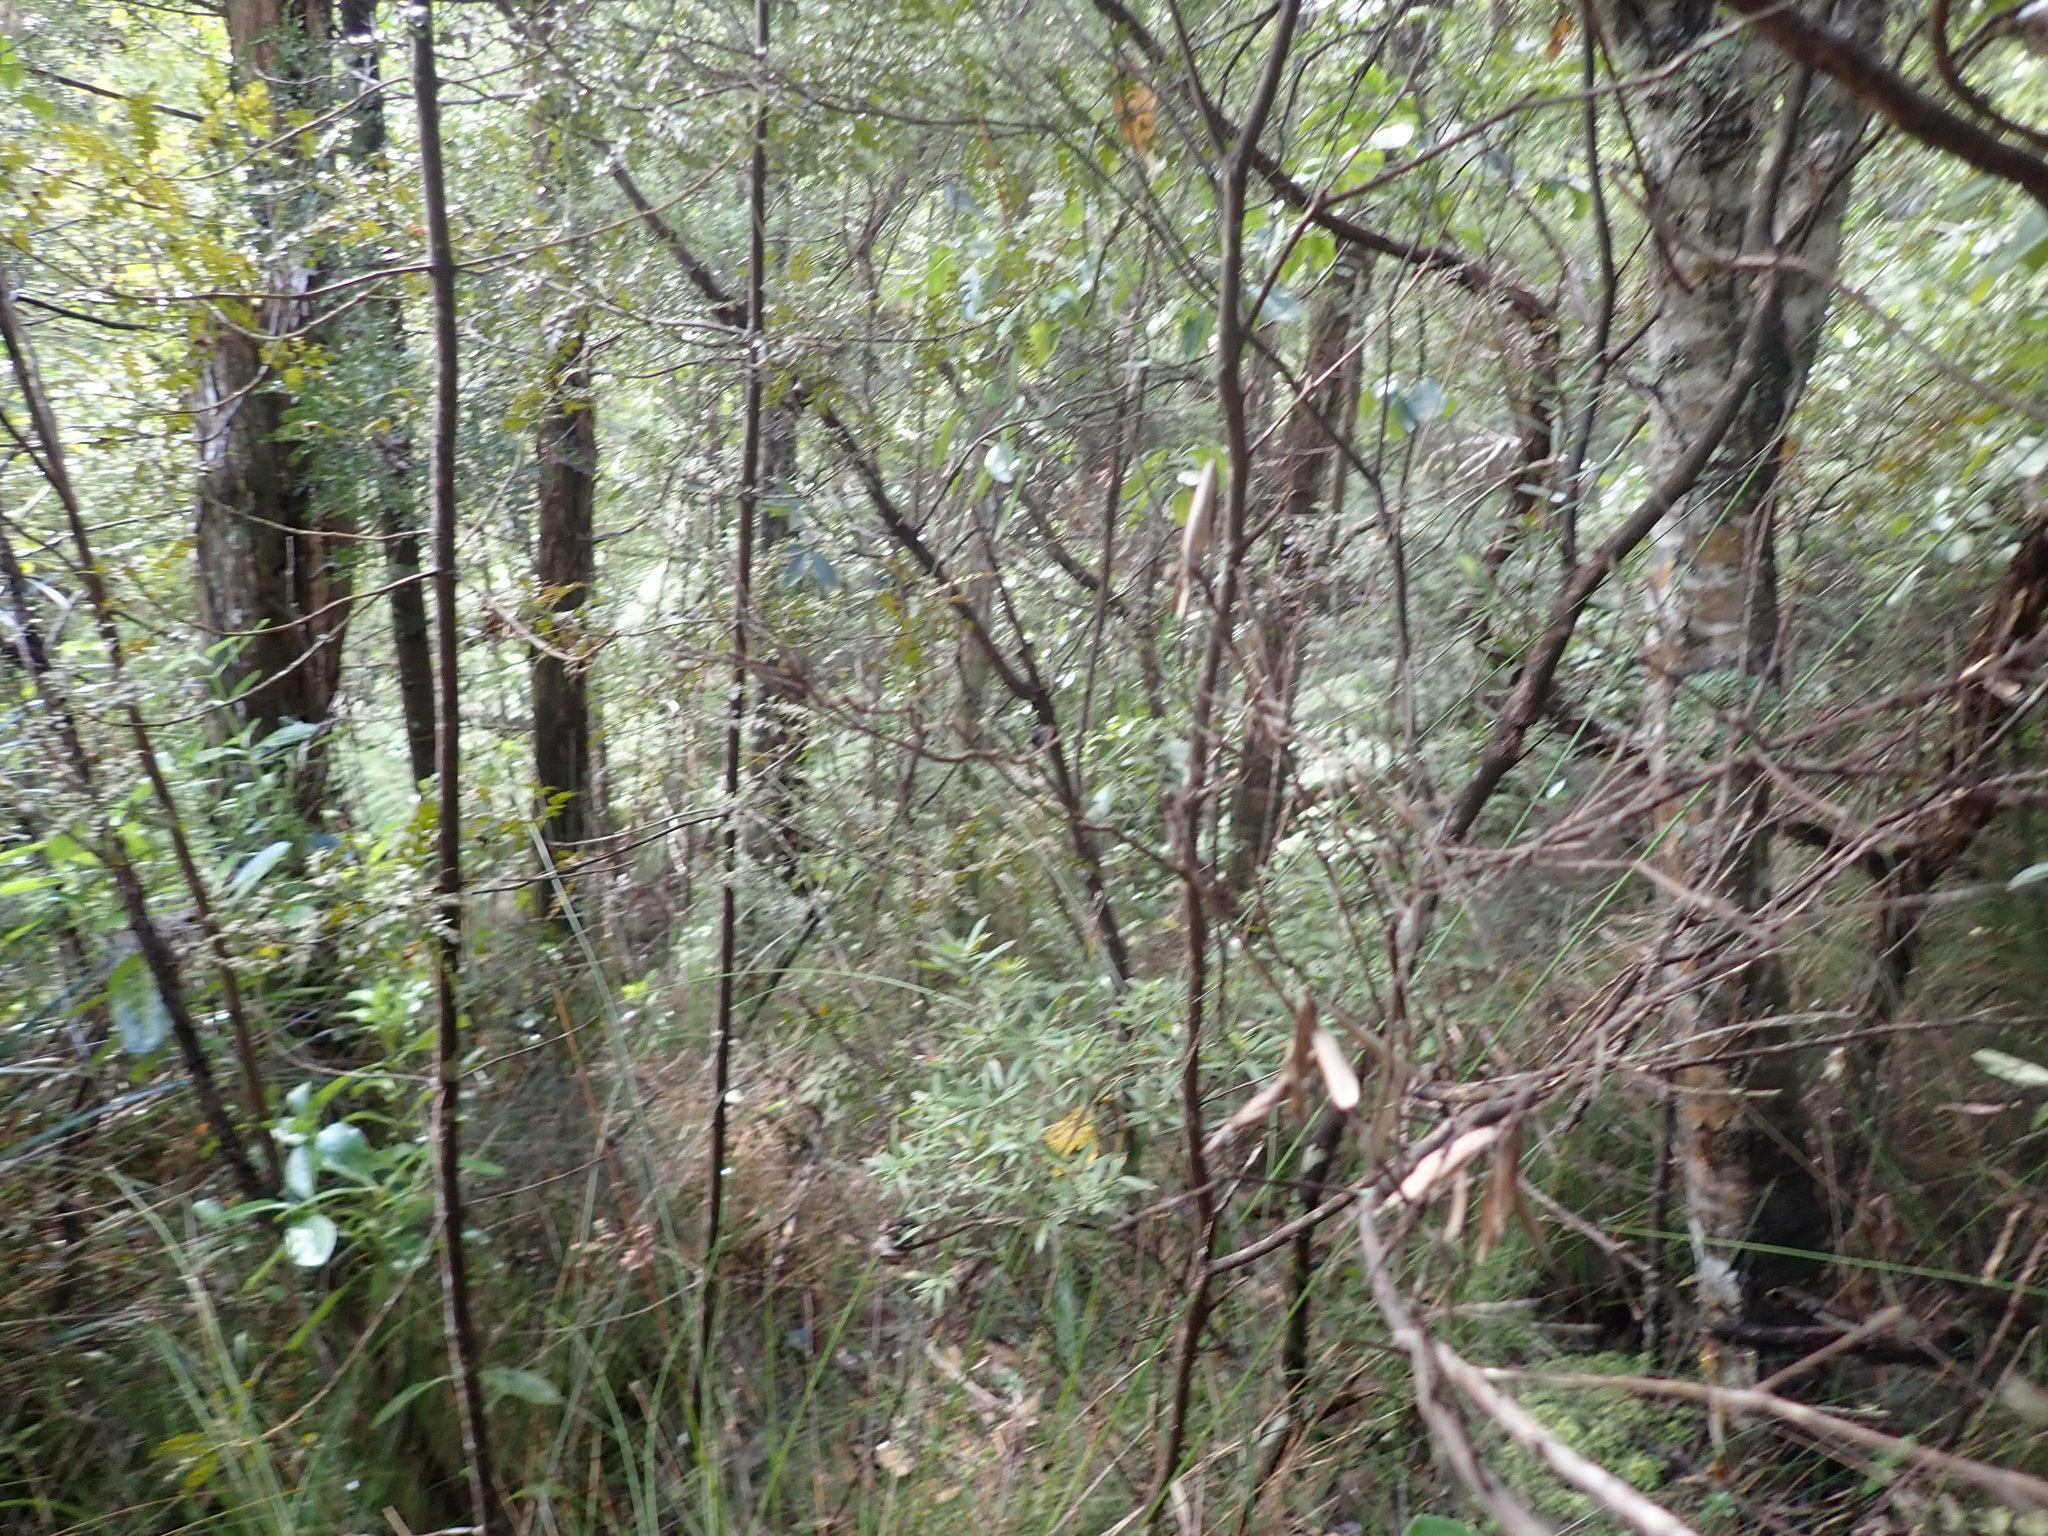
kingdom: Plantae
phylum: Tracheophyta
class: Pinopsida
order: Pinales
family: Phyllocladaceae
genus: Phyllocladus
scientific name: Phyllocladus trichomanoides
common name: Celery pine
